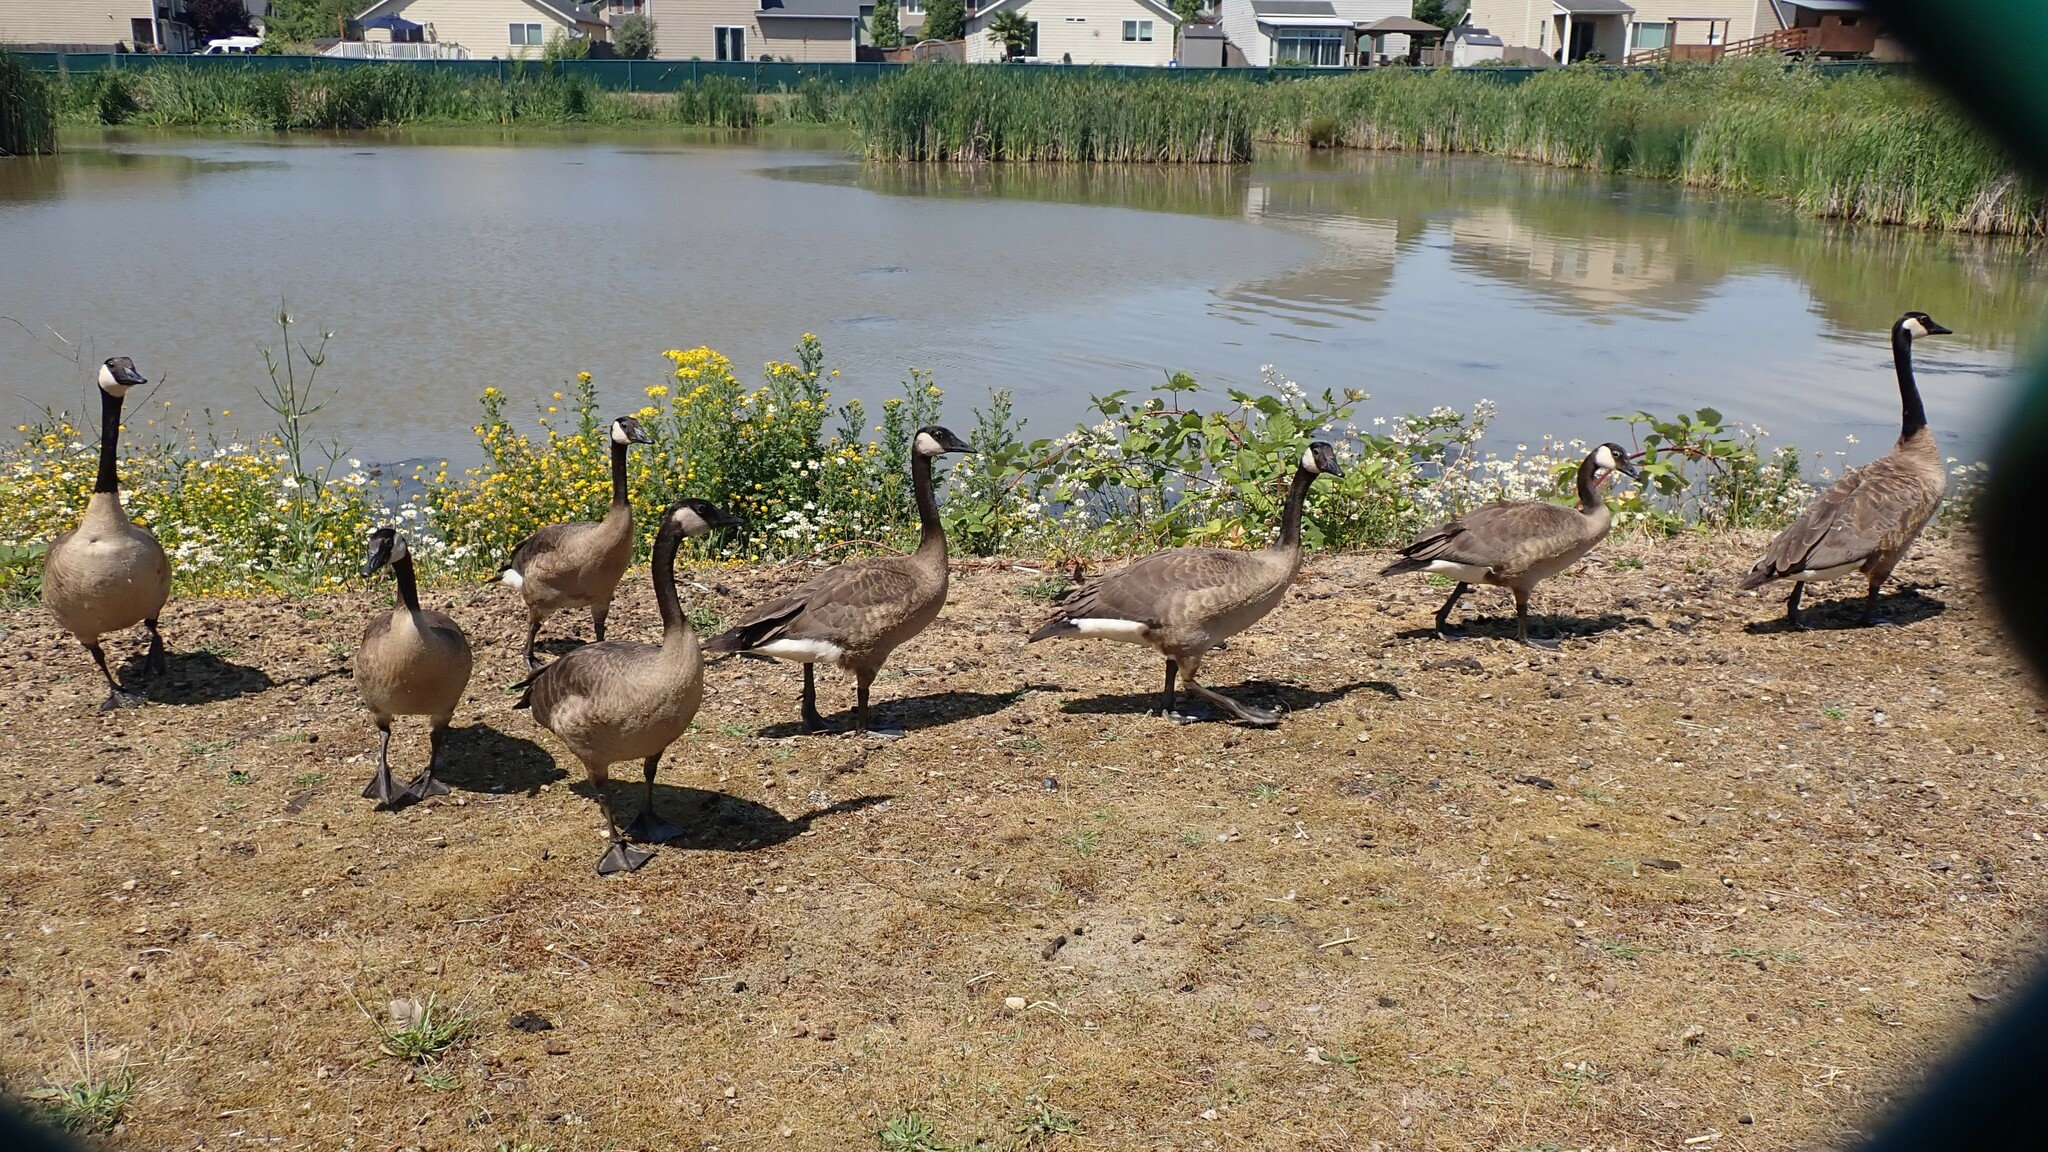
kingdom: Animalia
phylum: Chordata
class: Aves
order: Anseriformes
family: Anatidae
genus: Branta
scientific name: Branta canadensis
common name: Canada goose
